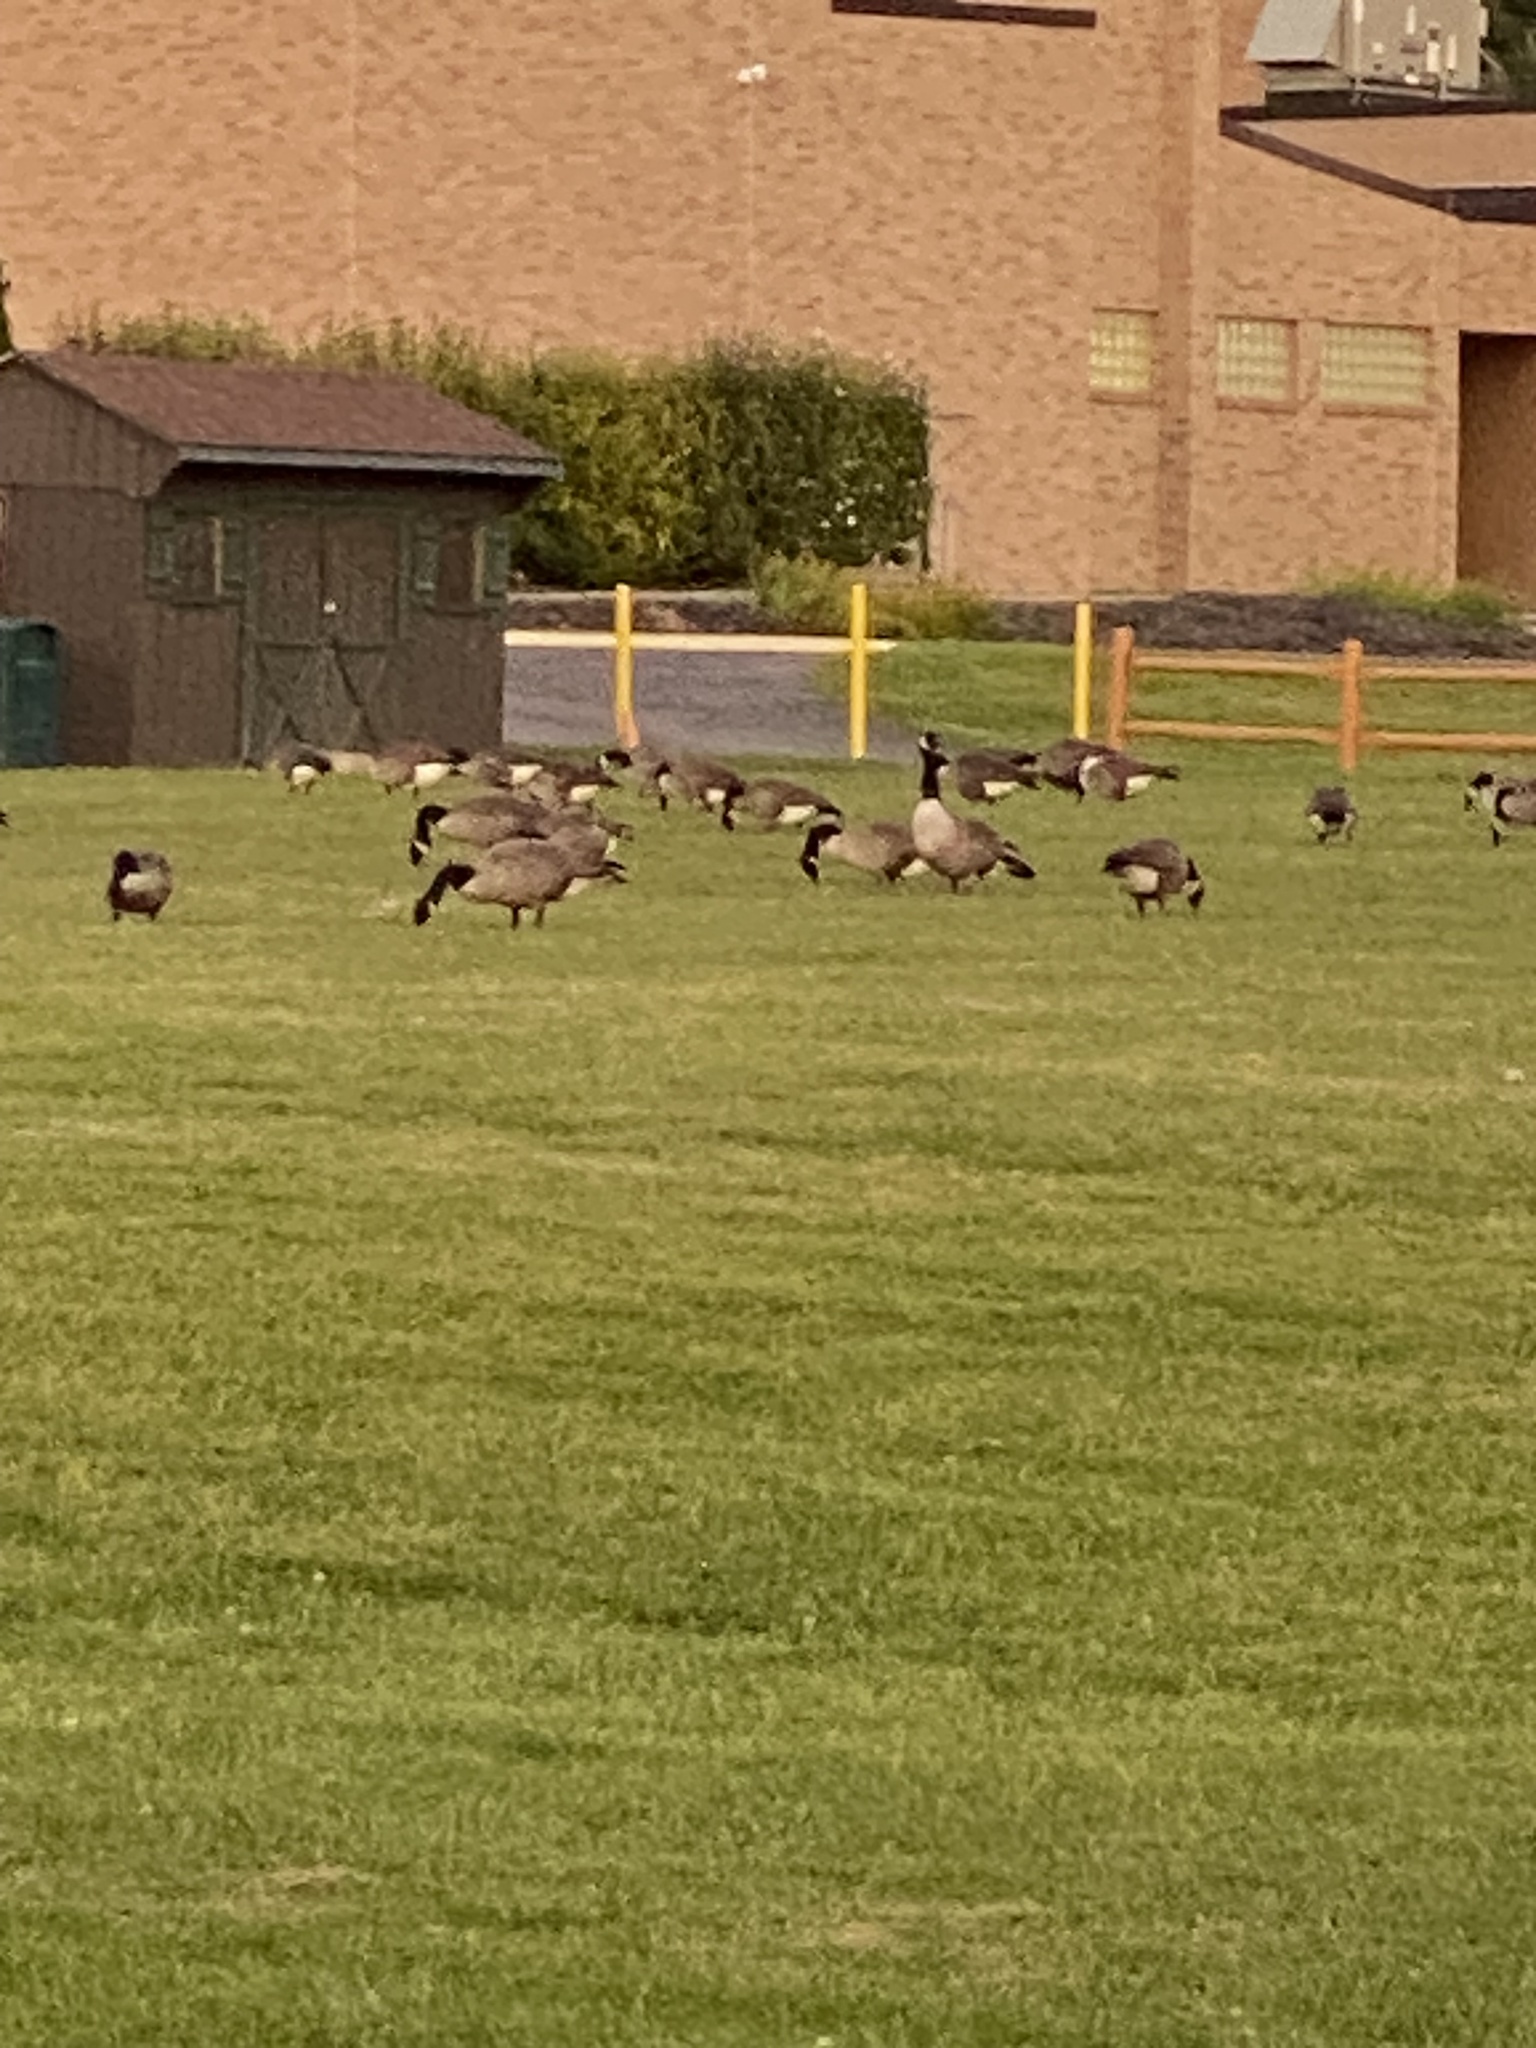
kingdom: Animalia
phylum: Chordata
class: Aves
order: Anseriformes
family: Anatidae
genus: Branta
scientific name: Branta canadensis
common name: Canada goose
